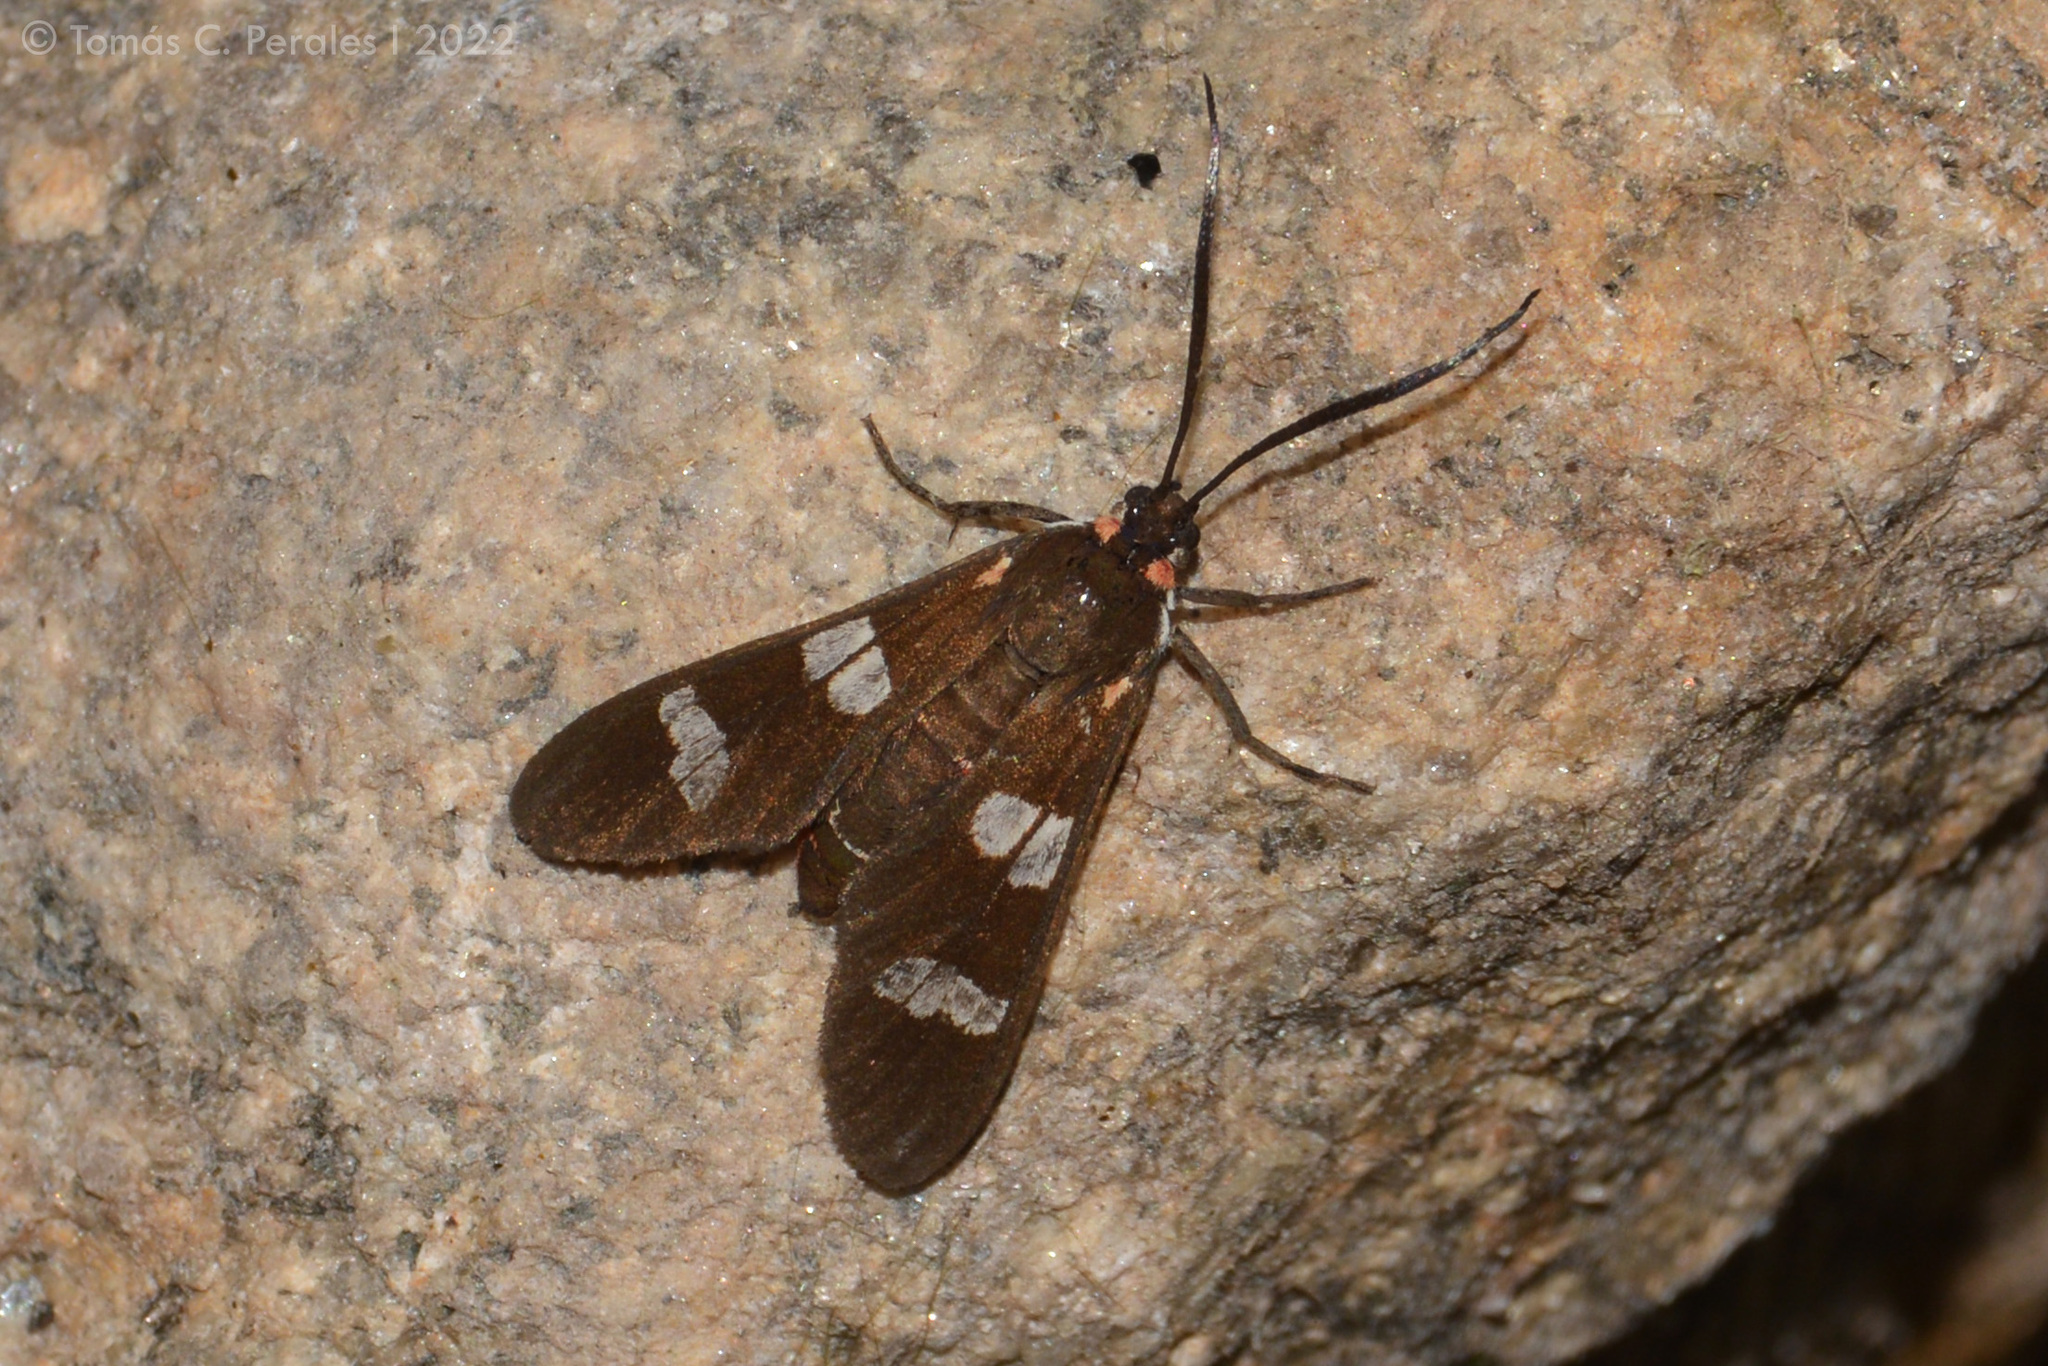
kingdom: Animalia
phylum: Arthropoda
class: Insecta
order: Lepidoptera
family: Erebidae
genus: Phoenicoprocta
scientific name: Phoenicoprocta teda
